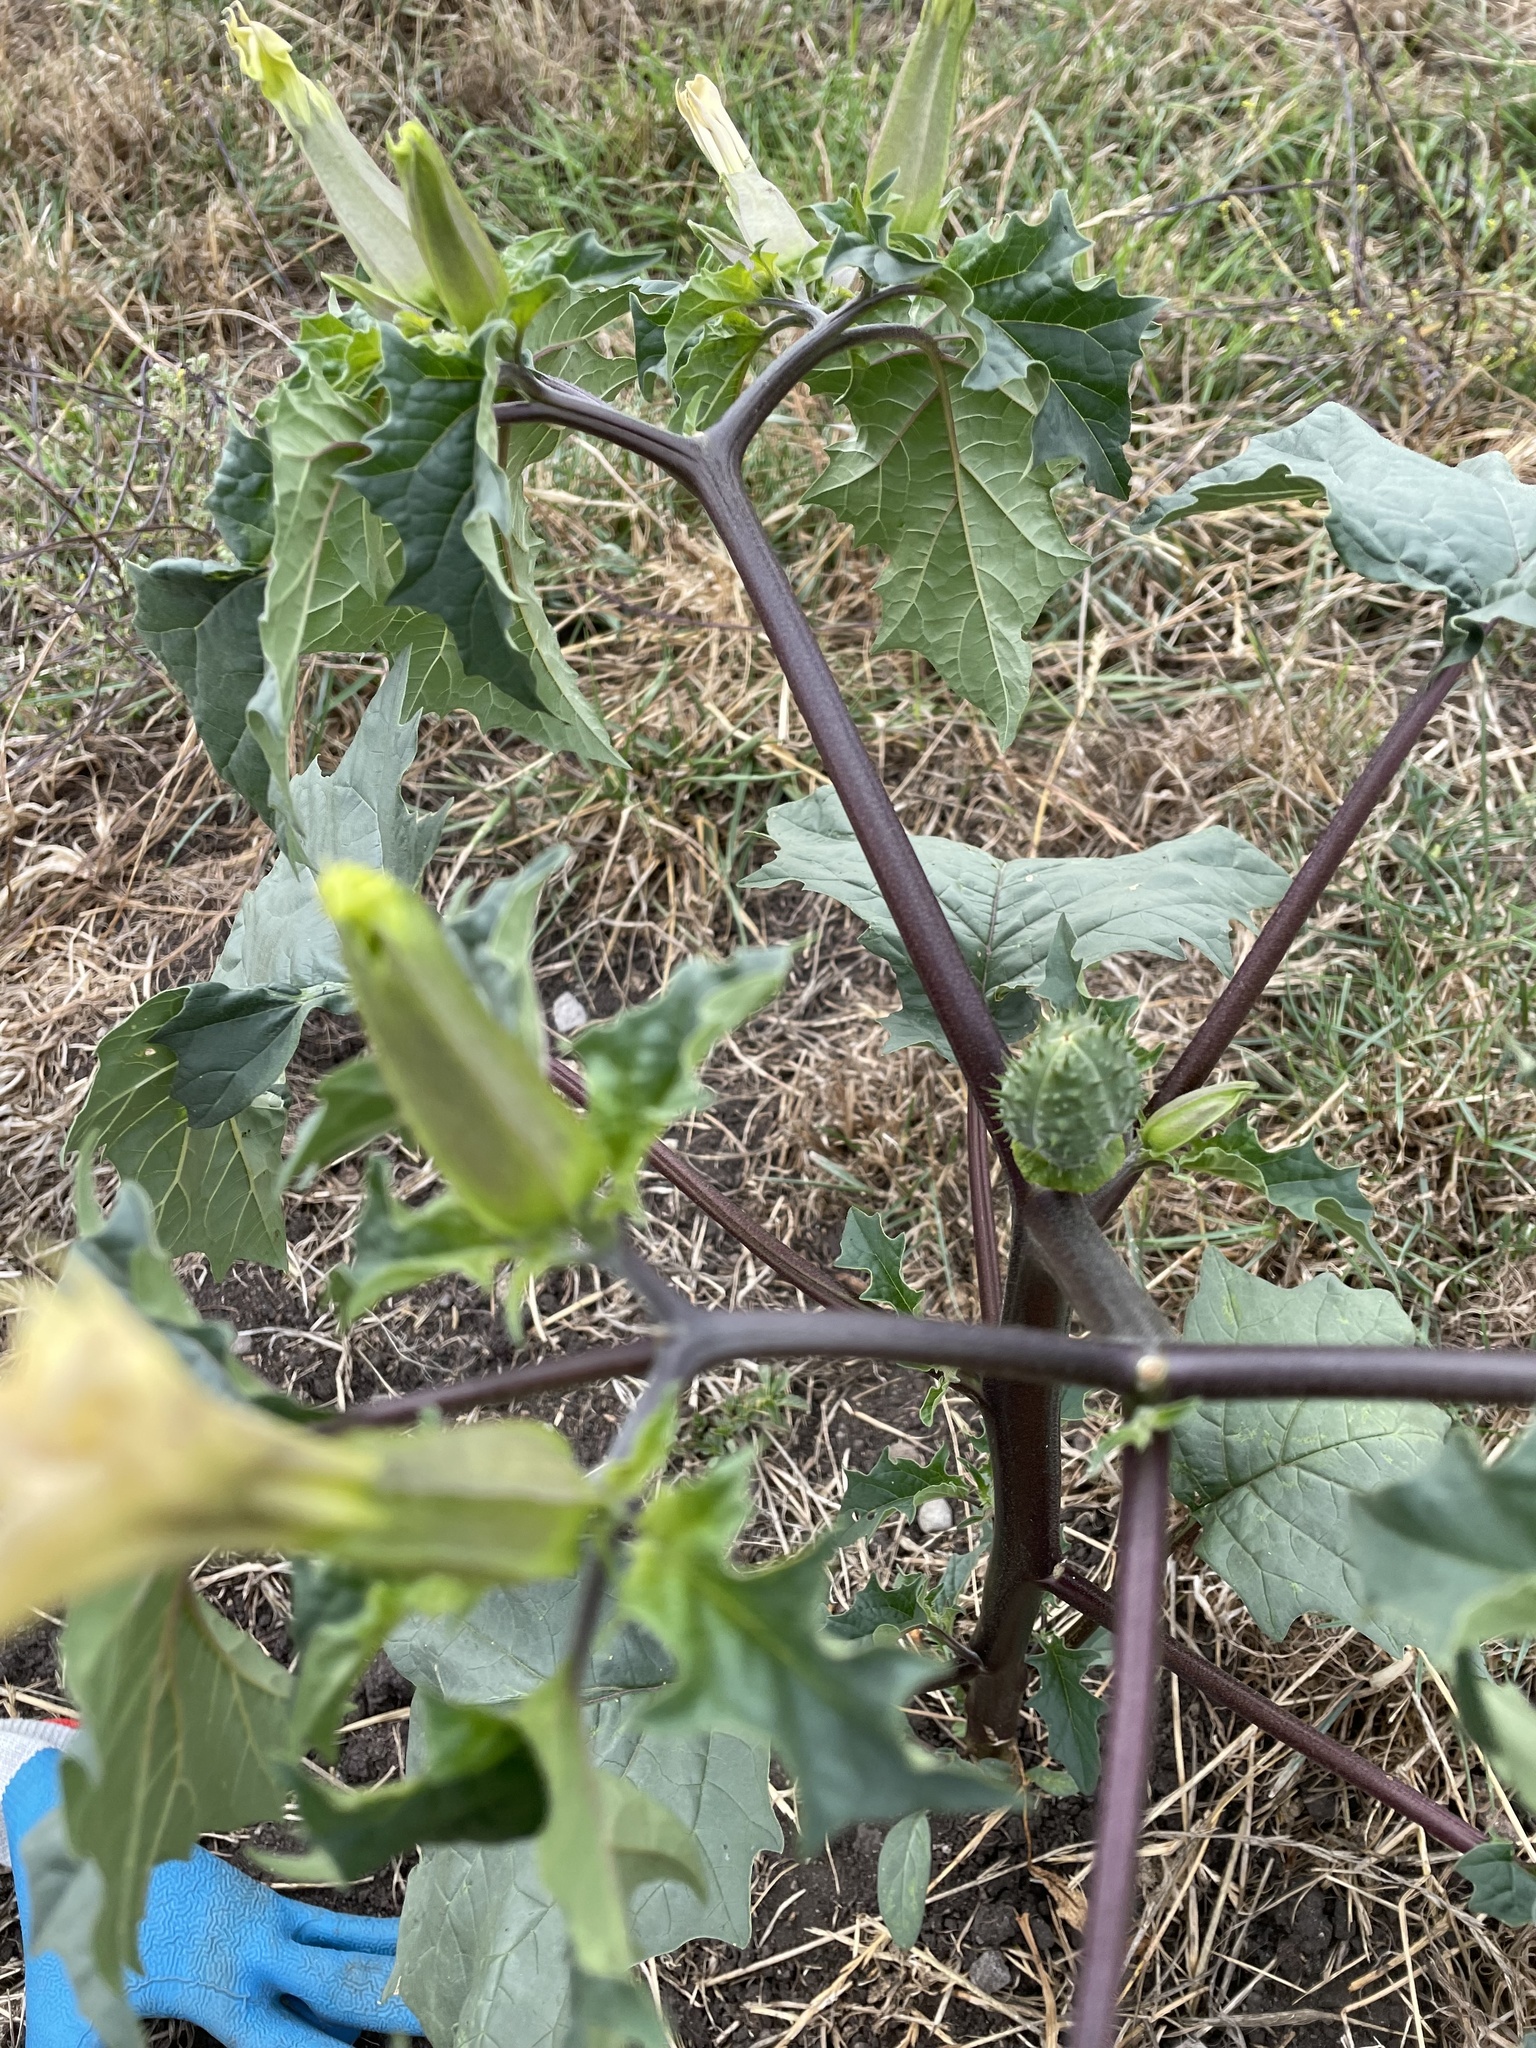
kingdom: Plantae
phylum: Tracheophyta
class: Magnoliopsida
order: Solanales
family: Solanaceae
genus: Datura
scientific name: Datura stramonium
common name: Thorn-apple
